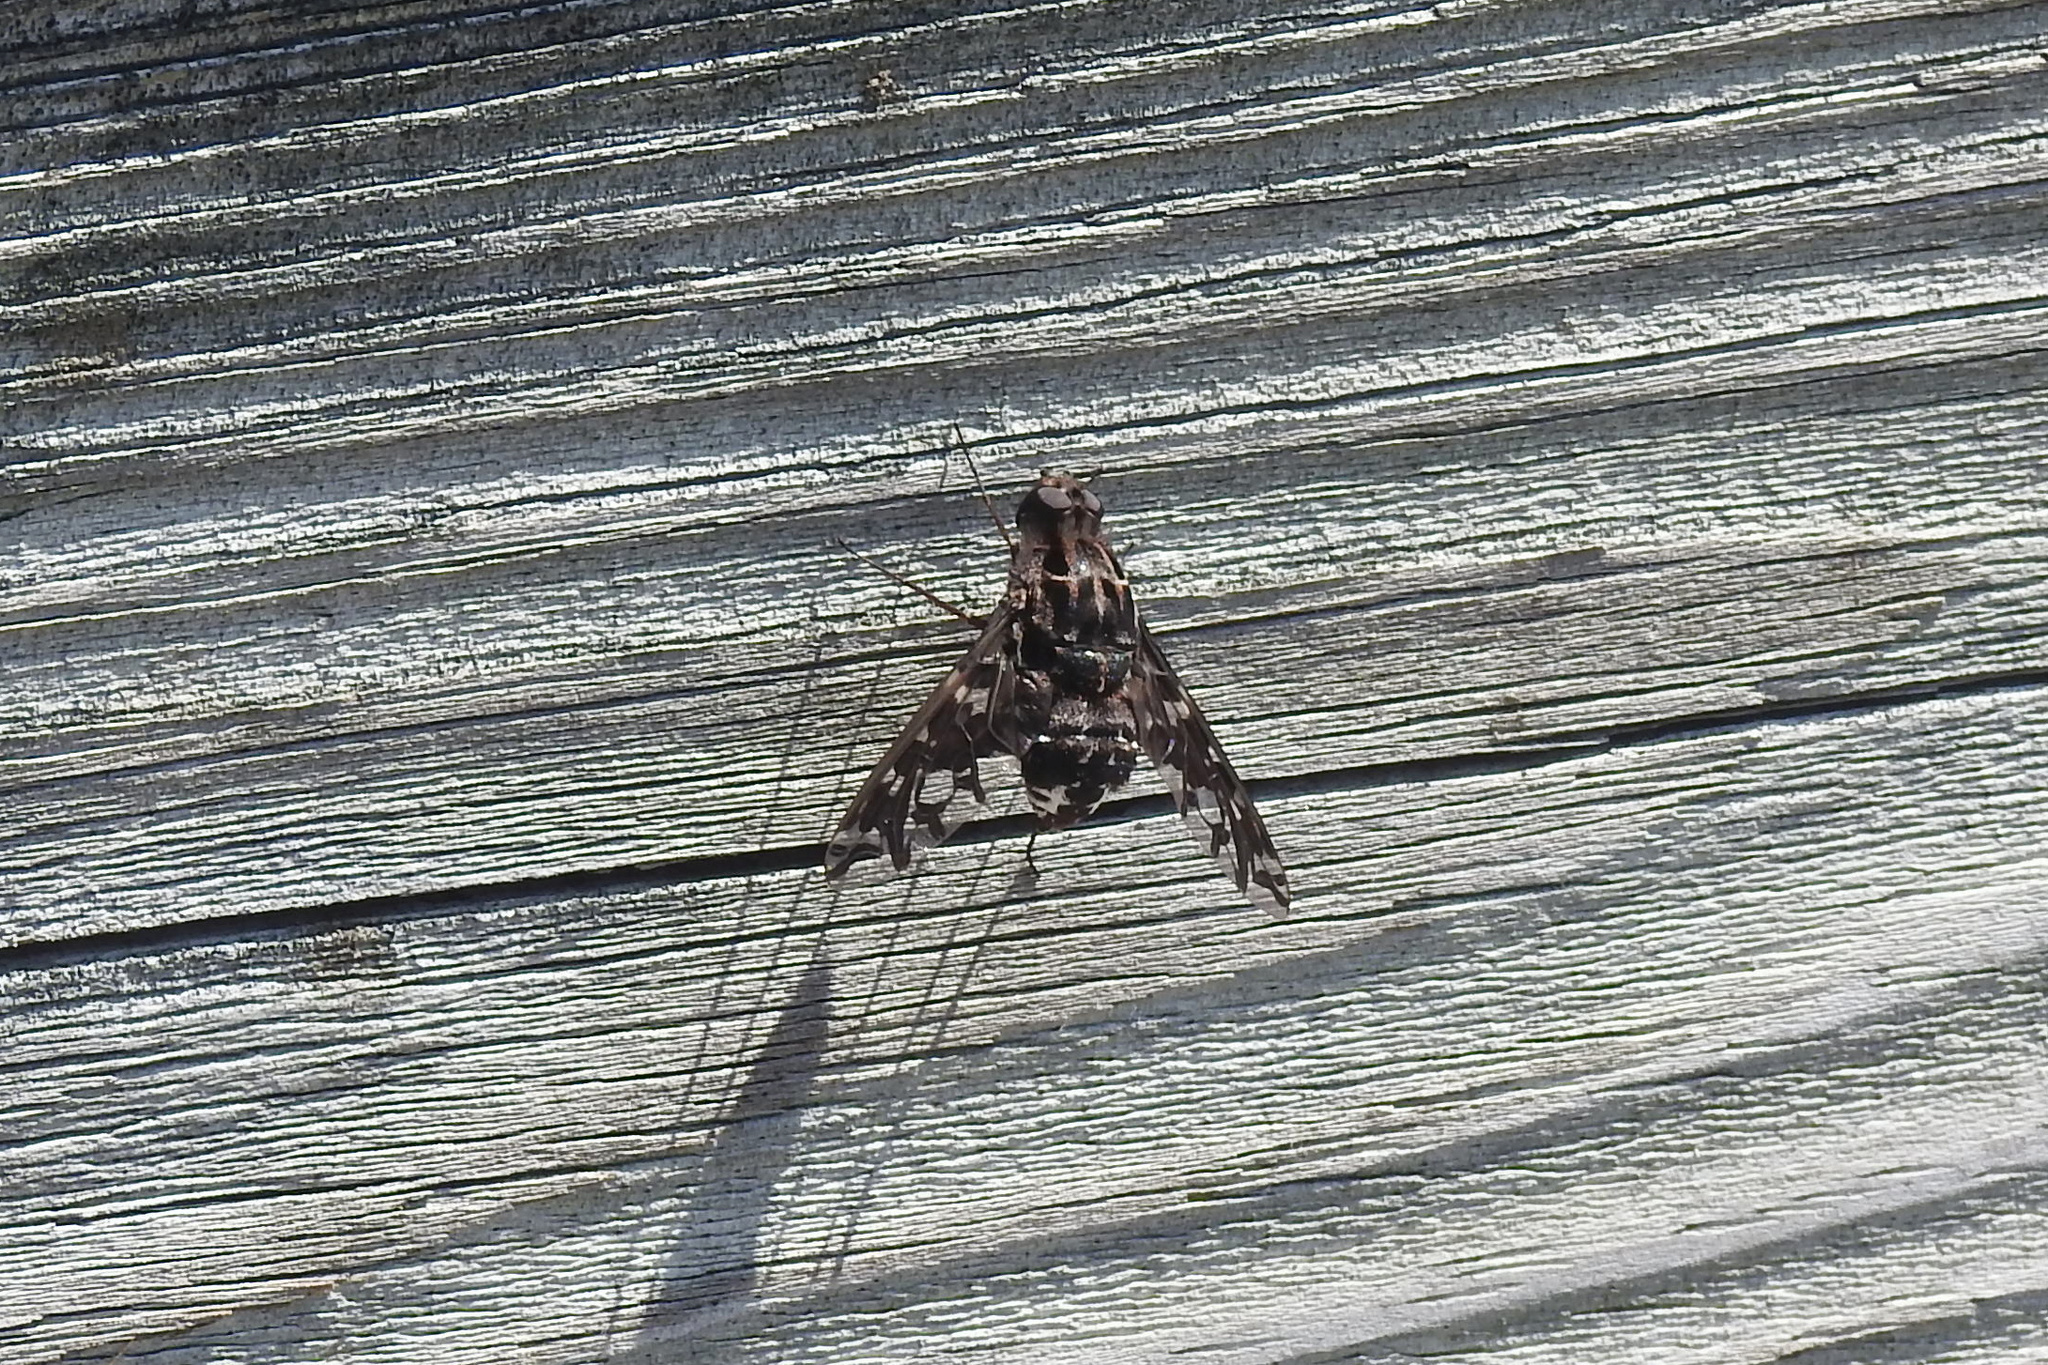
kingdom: Animalia
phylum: Arthropoda
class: Insecta
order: Diptera
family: Bombyliidae
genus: Xenox
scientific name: Xenox tigrinus
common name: Tiger bee fly
